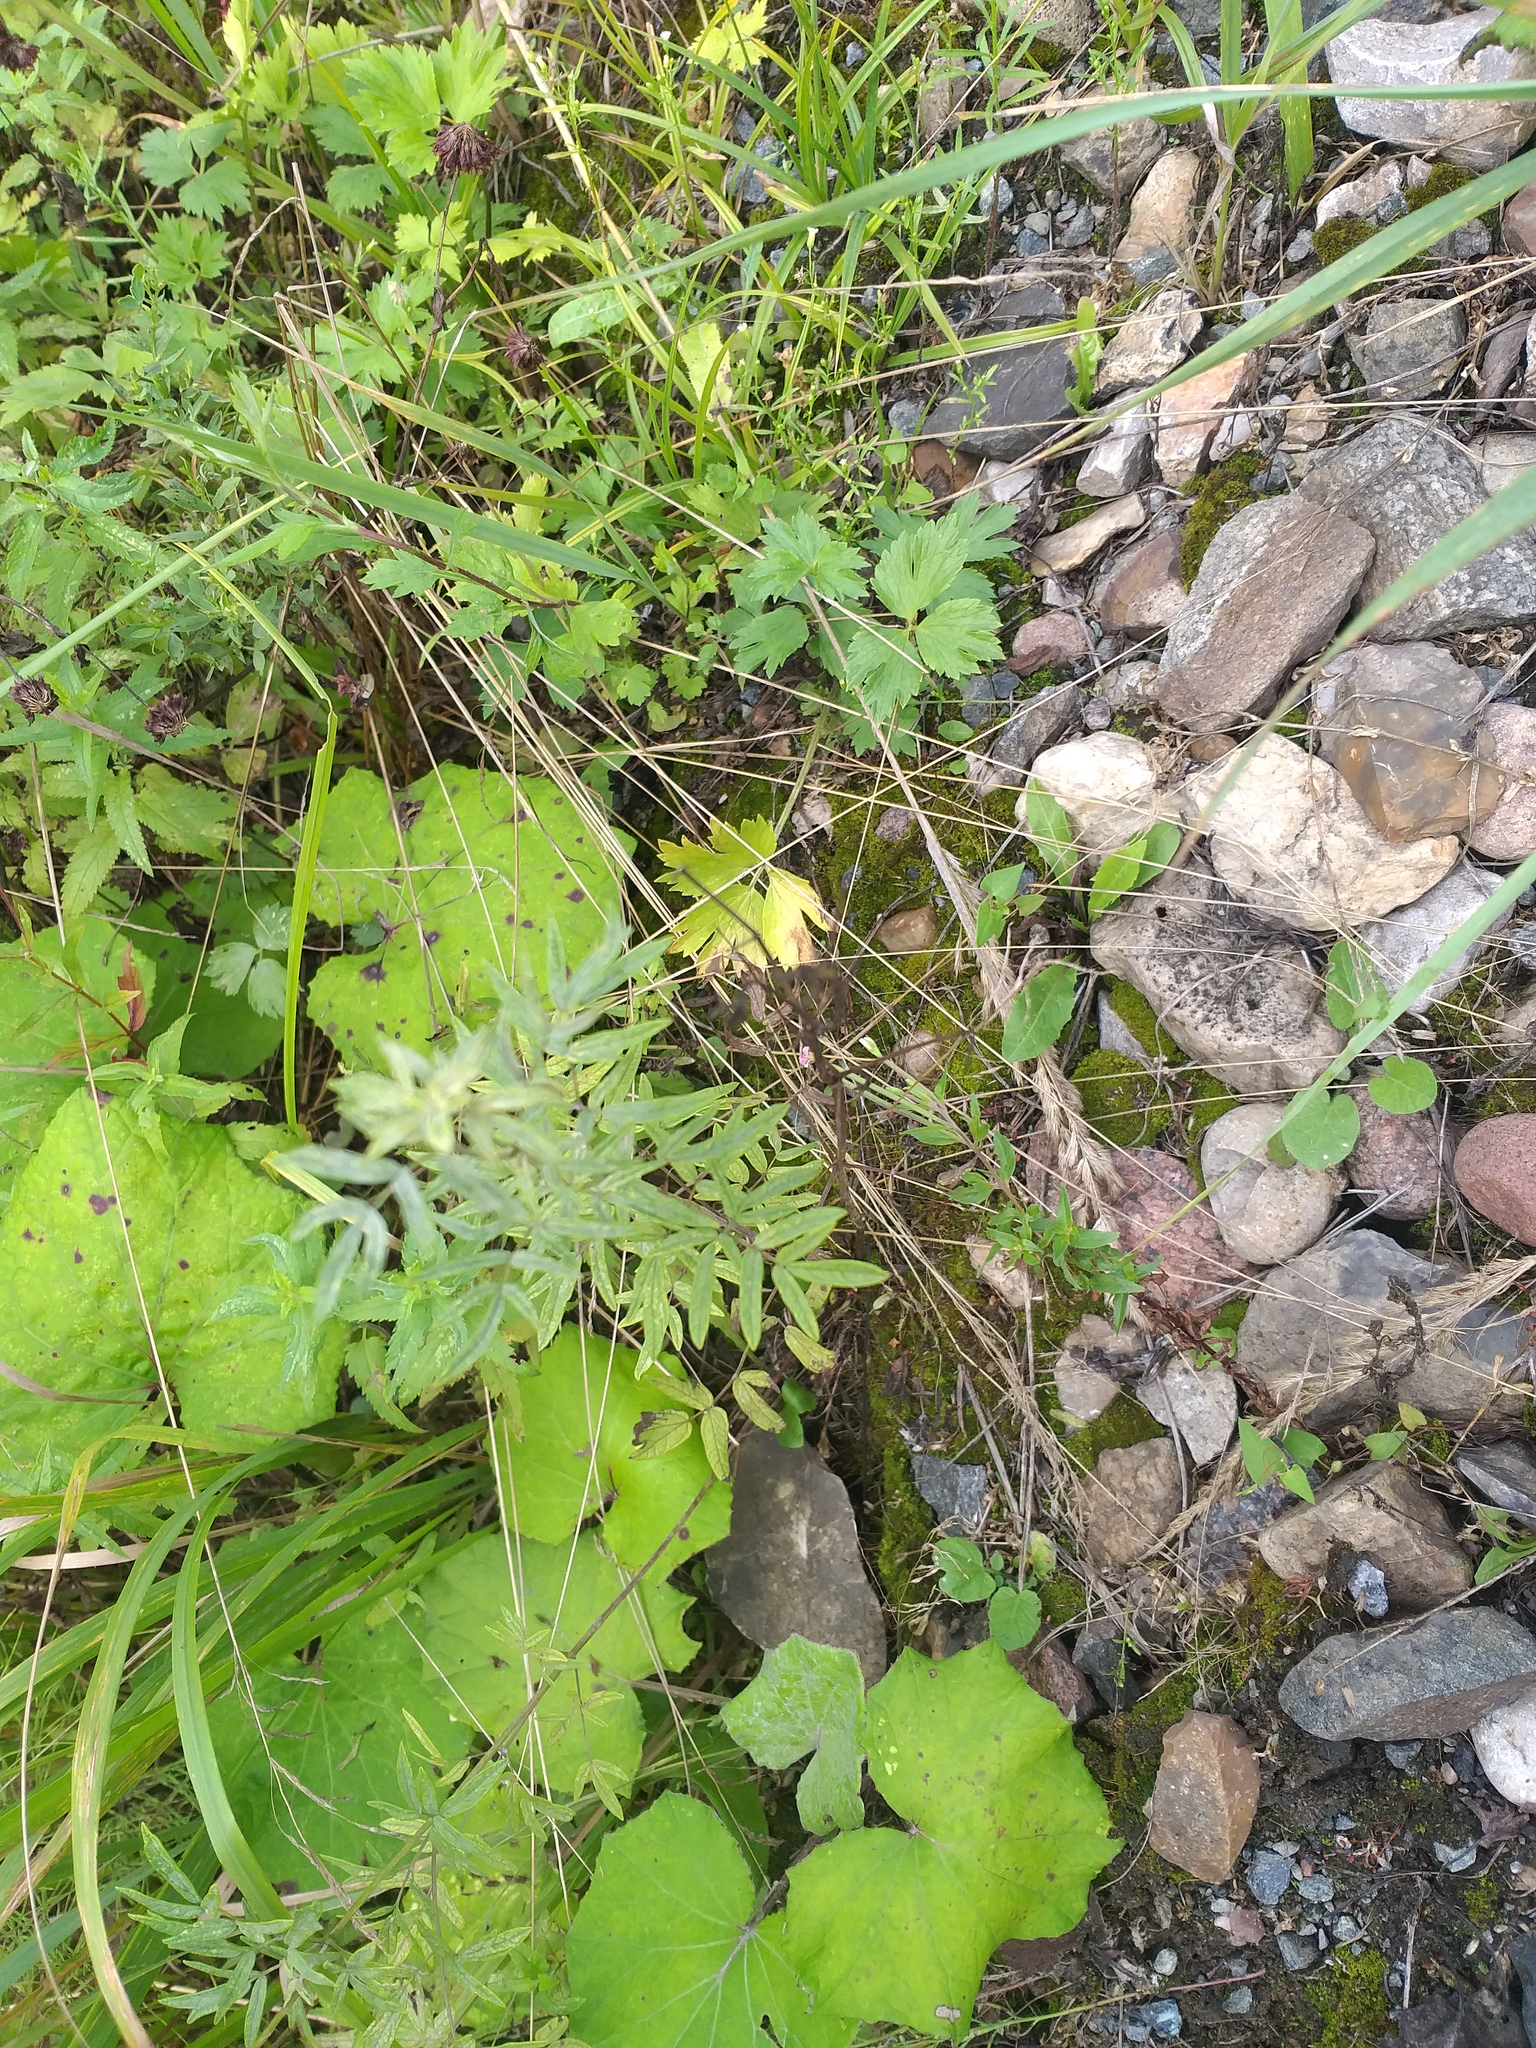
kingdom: Plantae
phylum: Tracheophyta
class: Magnoliopsida
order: Ranunculales
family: Ranunculaceae
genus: Thalictrum
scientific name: Thalictrum lucidum
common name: Shining meadow-rue
